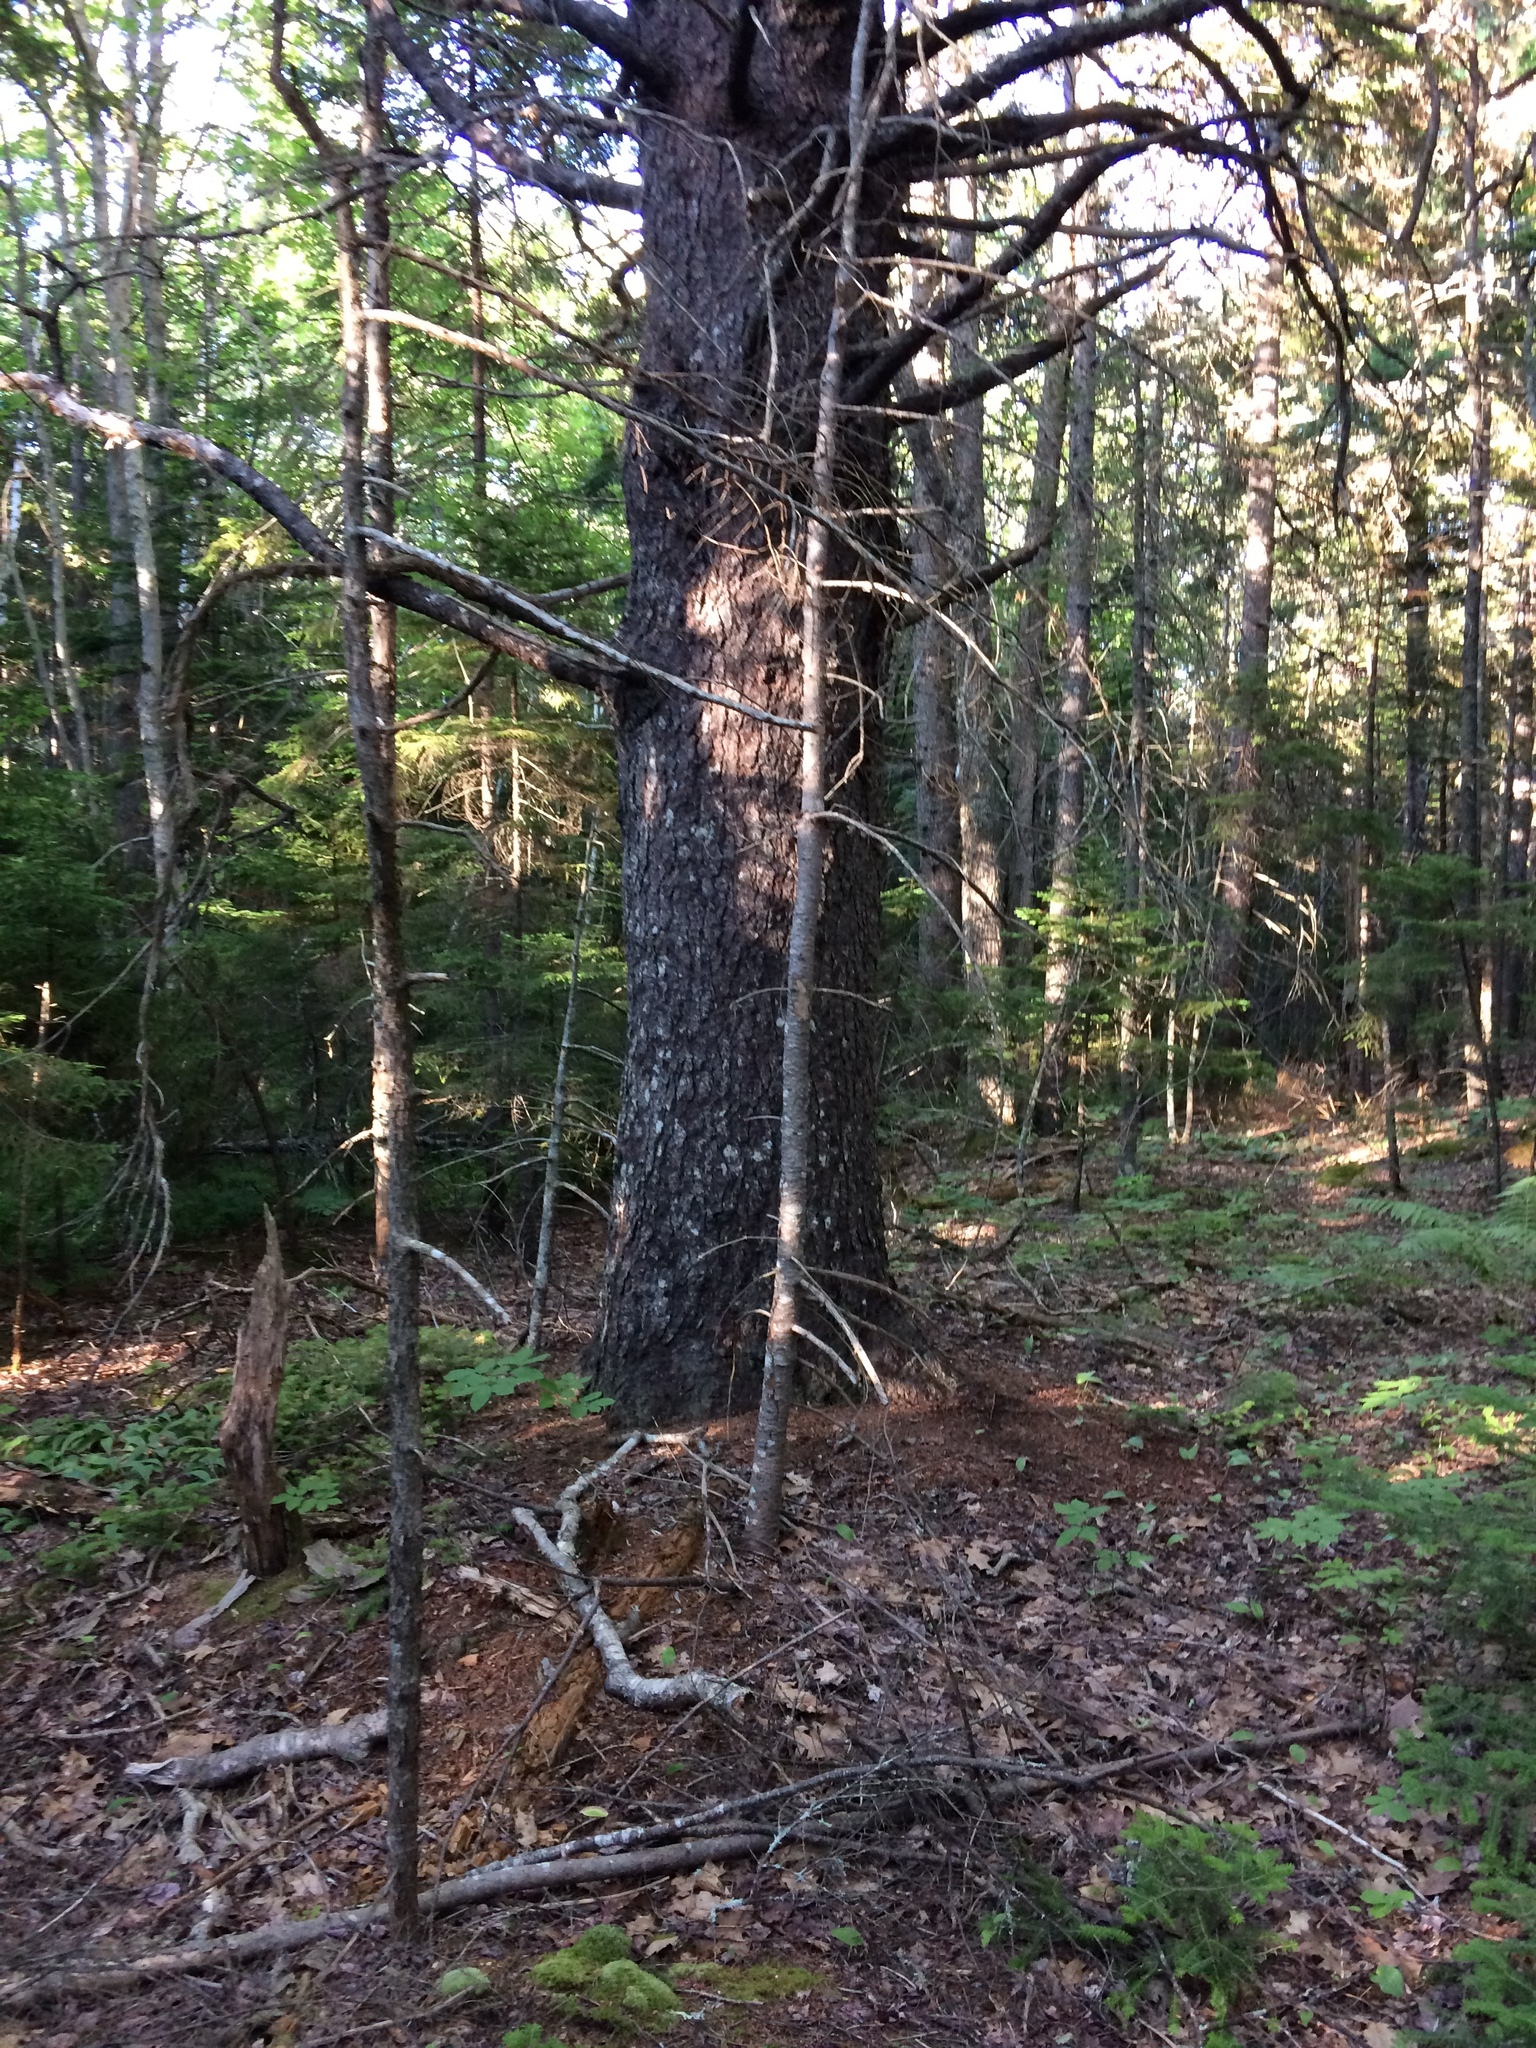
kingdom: Plantae
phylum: Tracheophyta
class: Pinopsida
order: Pinales
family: Pinaceae
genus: Picea
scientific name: Picea
